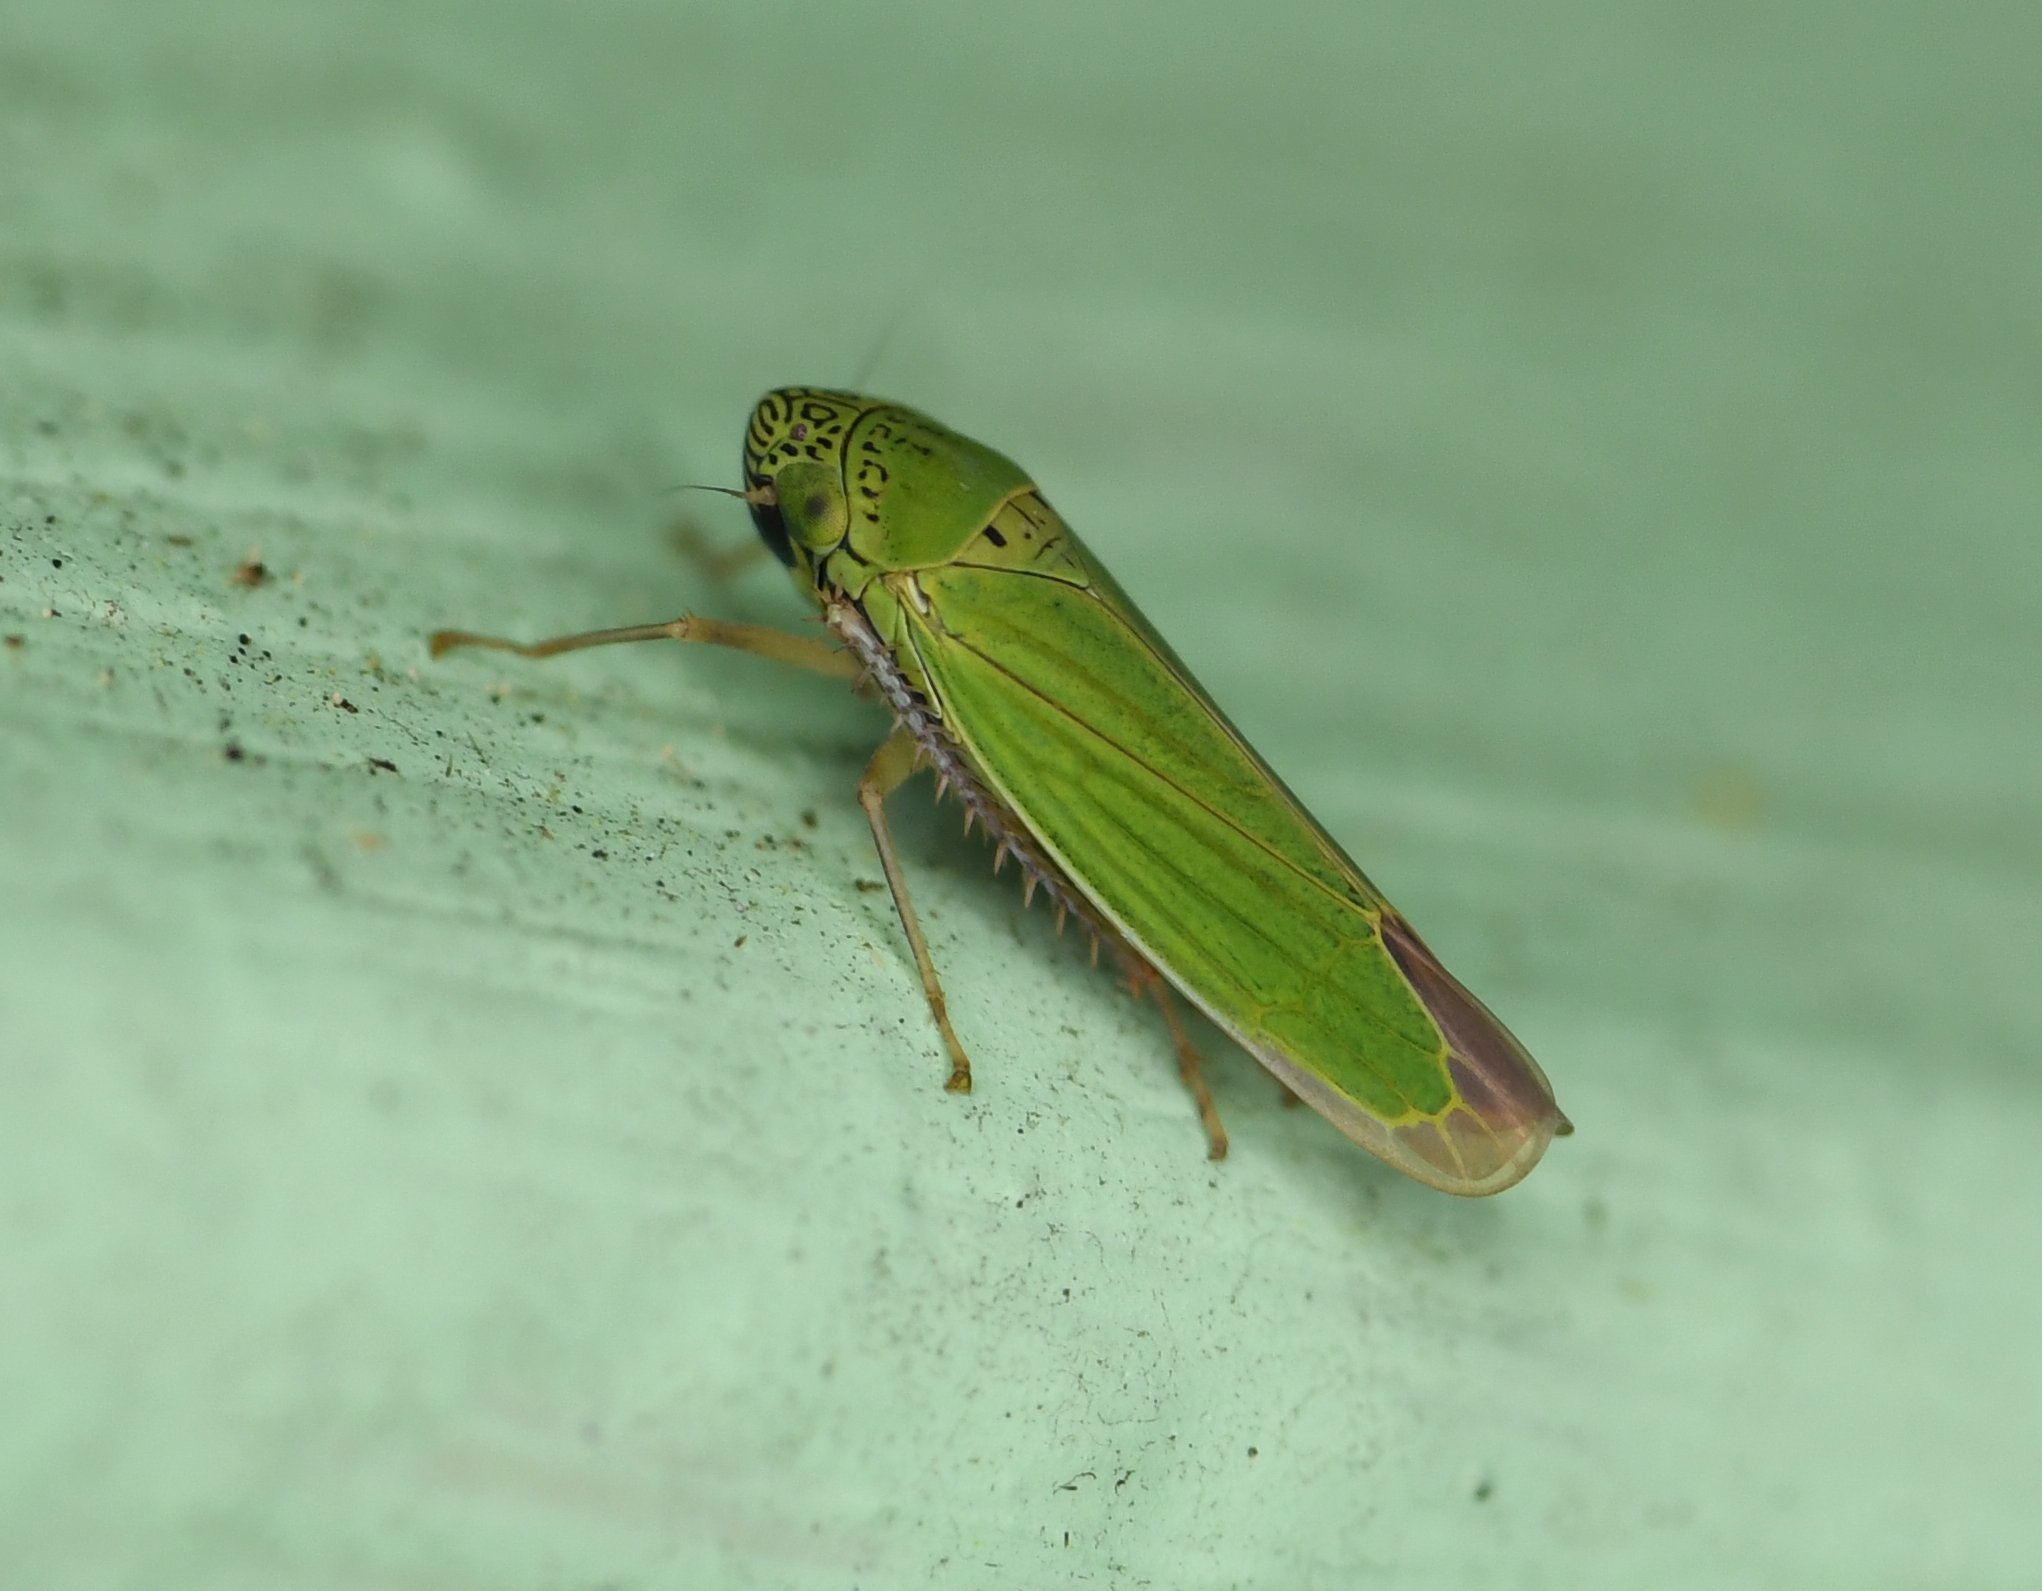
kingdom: Animalia
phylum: Arthropoda
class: Insecta
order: Hemiptera
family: Cicadellidae
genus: Hortensia
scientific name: Hortensia similis
